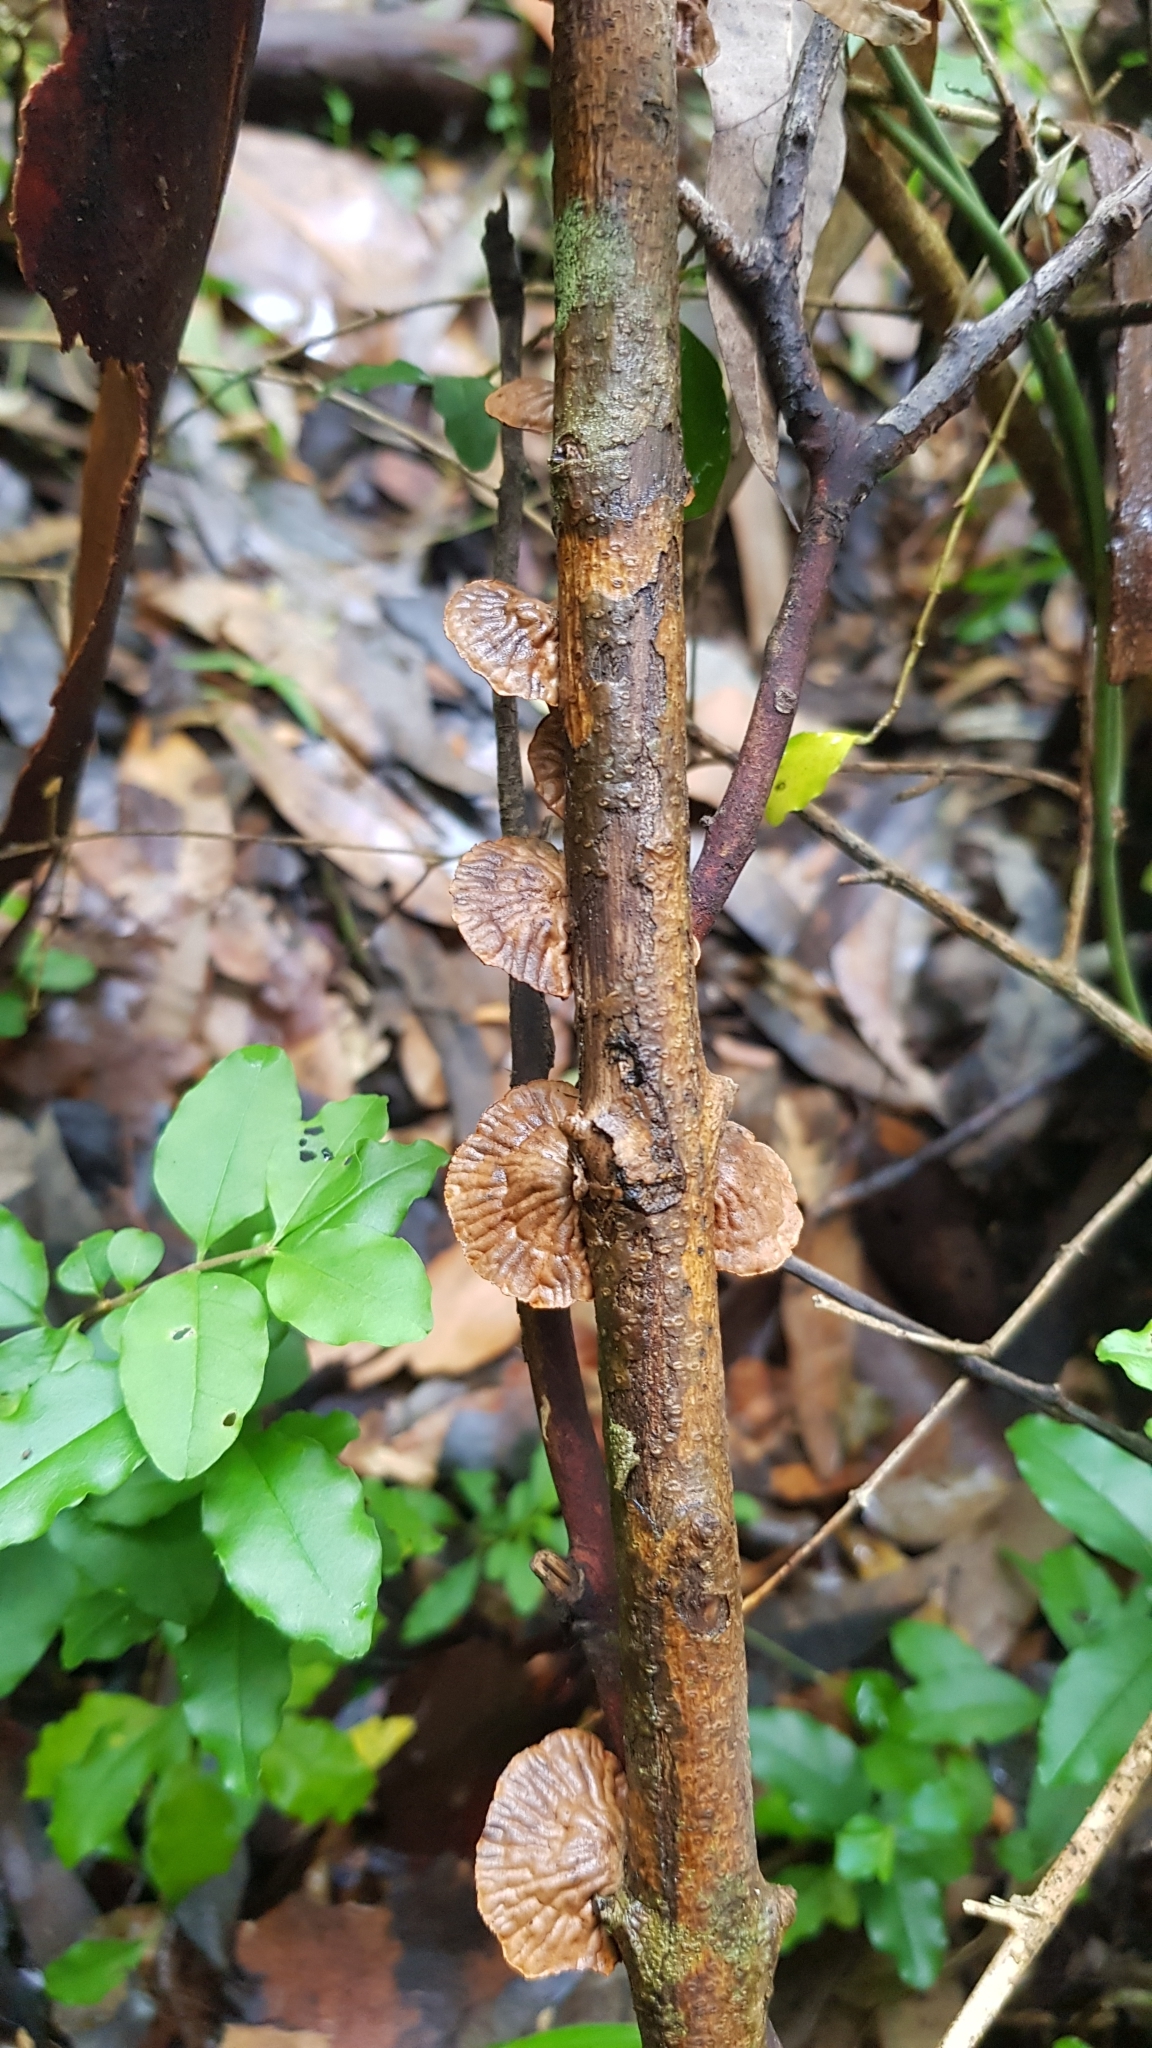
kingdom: Fungi
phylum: Basidiomycota
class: Agaricomycetes
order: Agaricales
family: Omphalotaceae
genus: Anthracophyllum
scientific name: Anthracophyllum archeri
